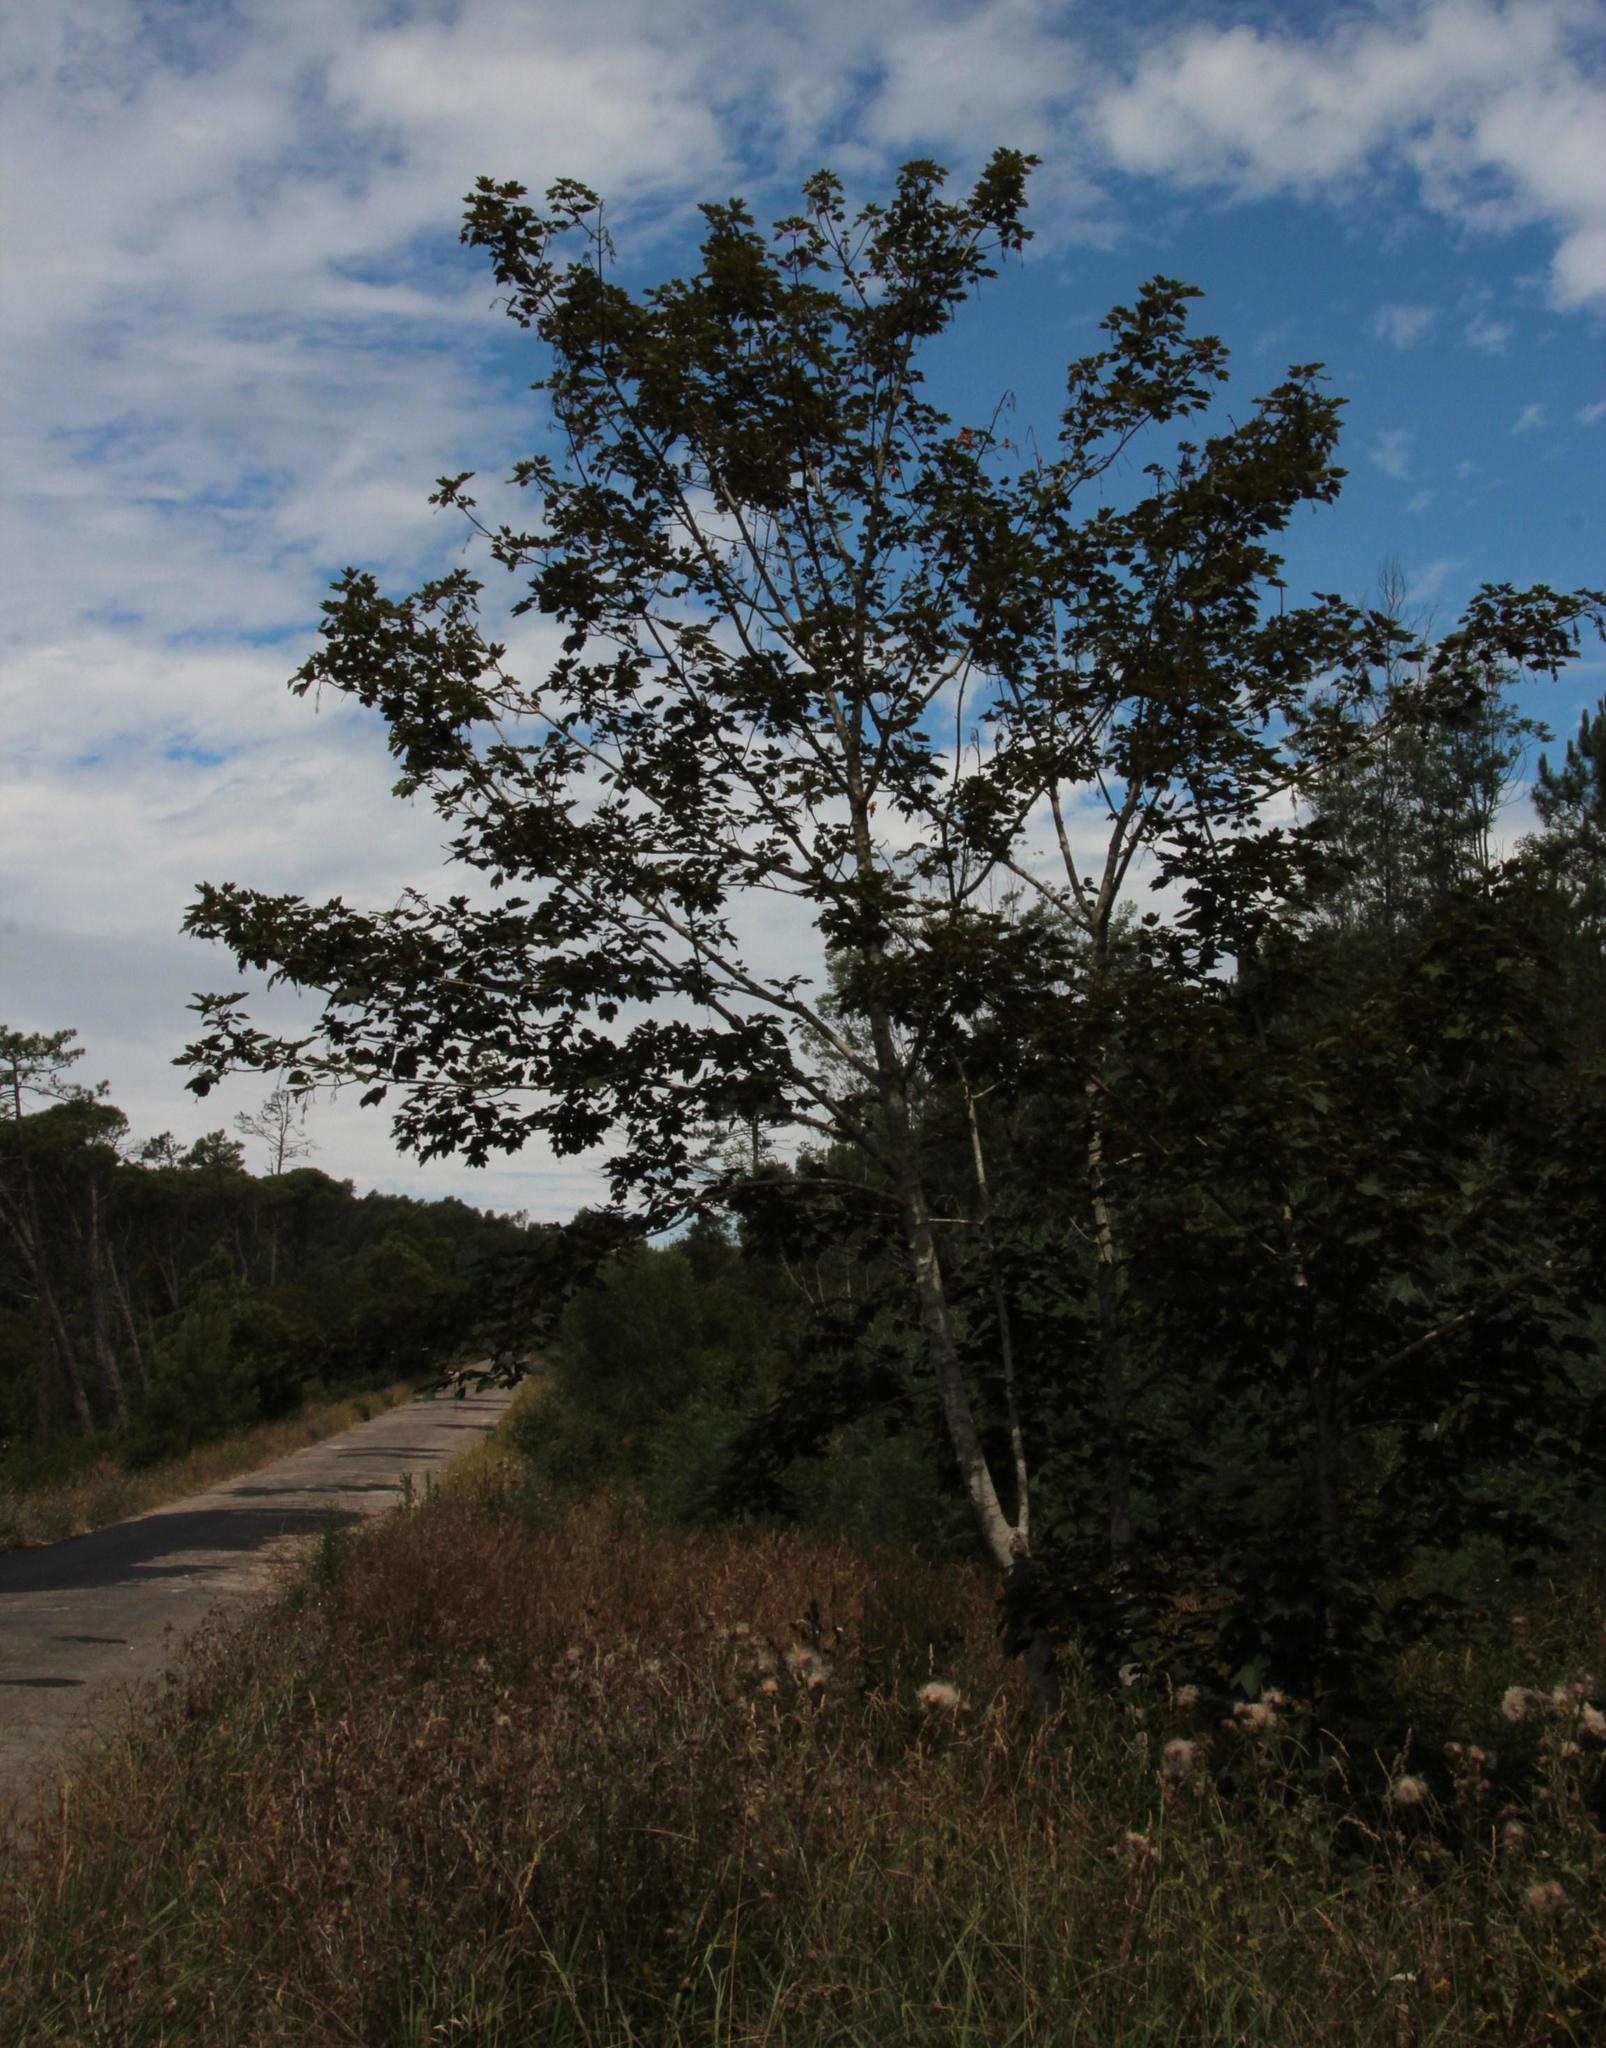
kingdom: Plantae
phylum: Tracheophyta
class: Magnoliopsida
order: Sapindales
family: Sapindaceae
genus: Acer
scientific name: Acer pseudoplatanus
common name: Sycamore
